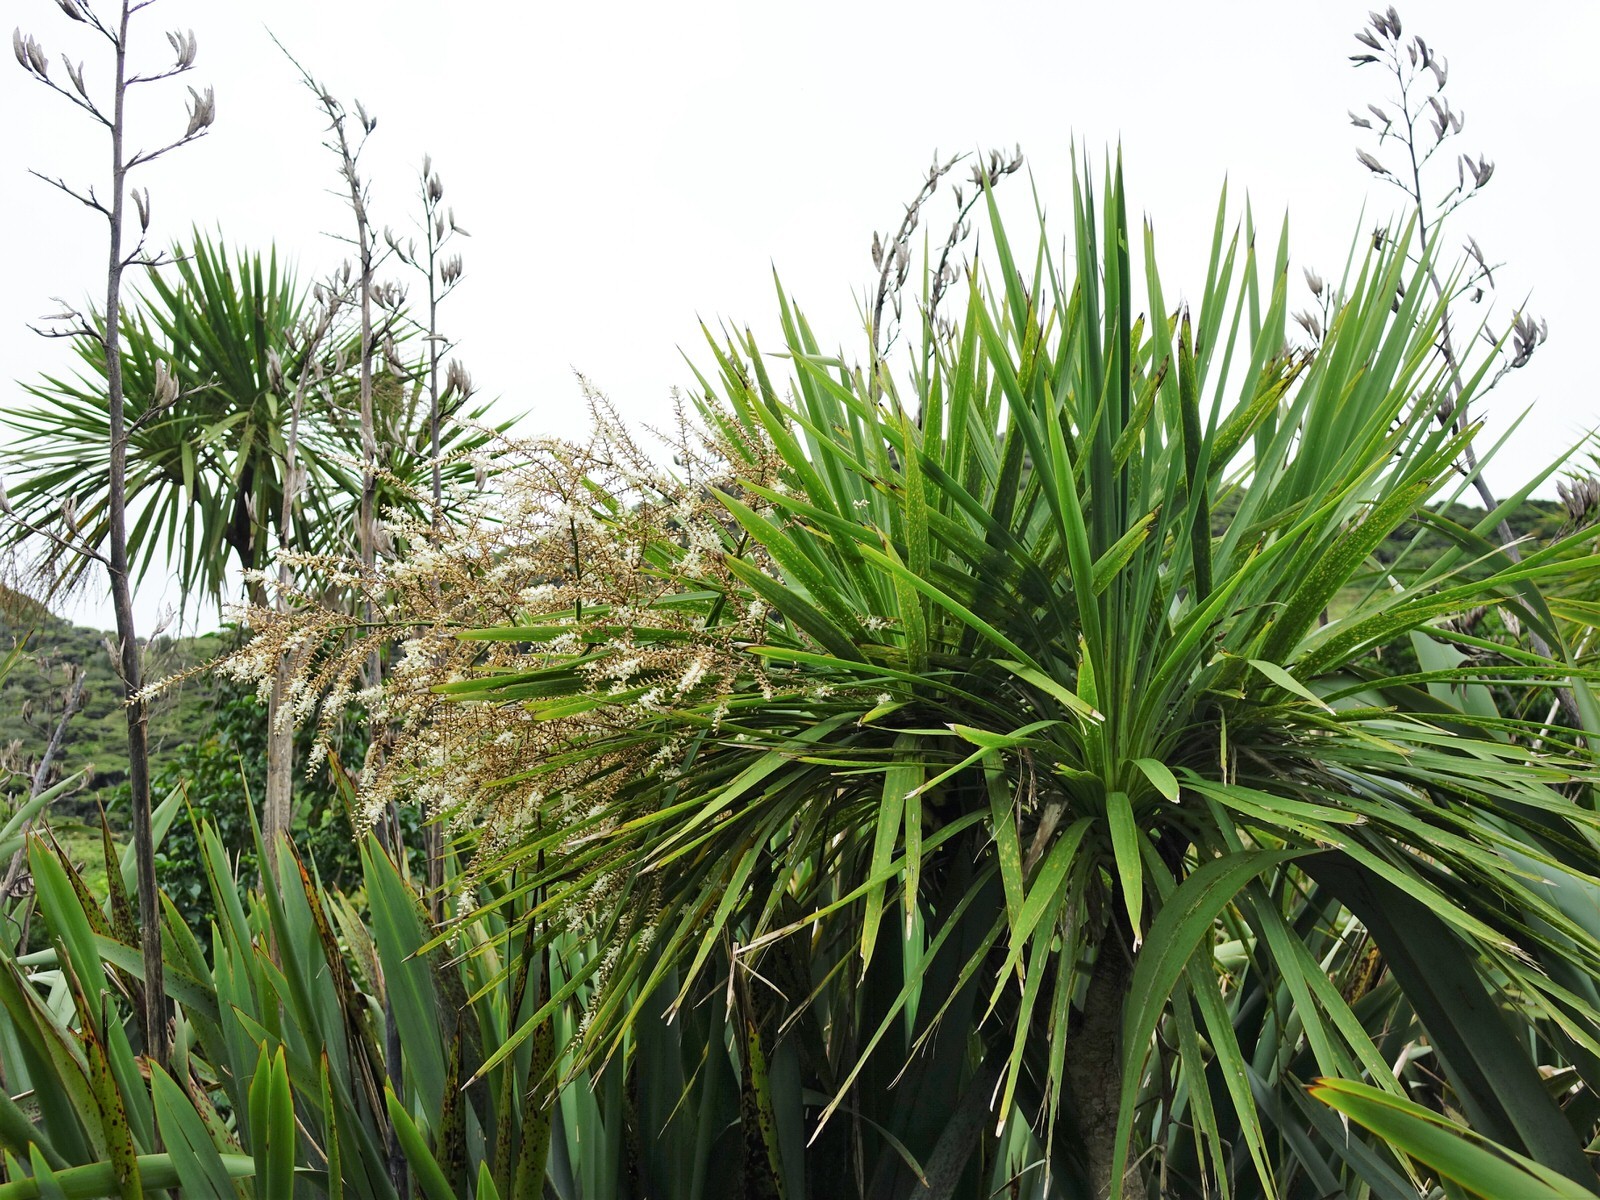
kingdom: Plantae
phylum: Tracheophyta
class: Liliopsida
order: Asparagales
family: Asparagaceae
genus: Cordyline
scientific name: Cordyline australis
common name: Cabbage-palm
